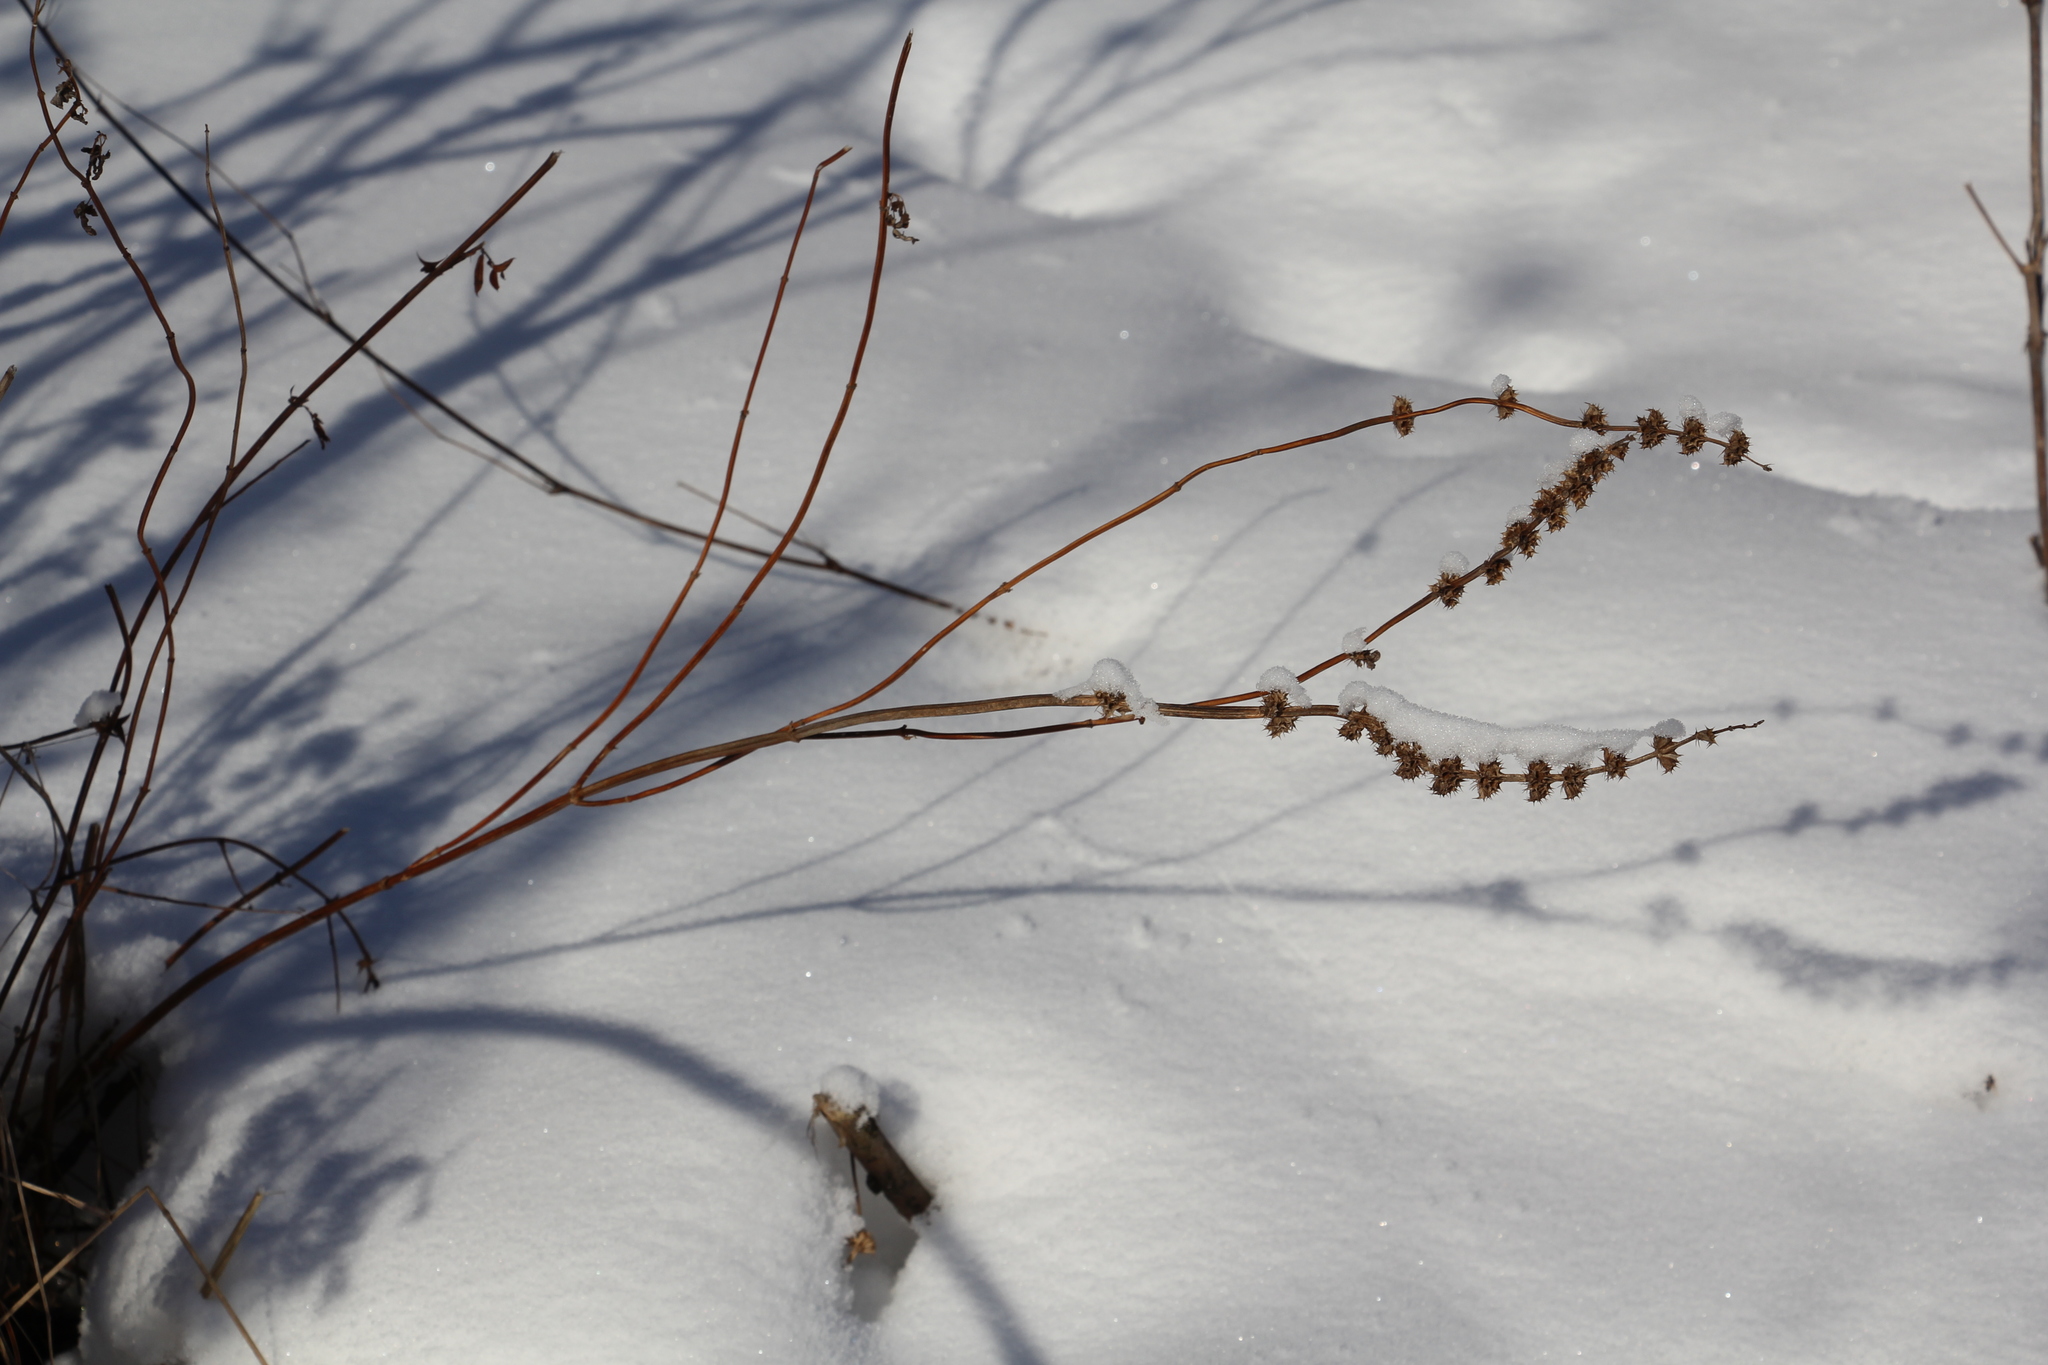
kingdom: Plantae
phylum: Tracheophyta
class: Magnoliopsida
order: Lamiales
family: Lamiaceae
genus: Leonurus
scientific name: Leonurus quinquelobatus
